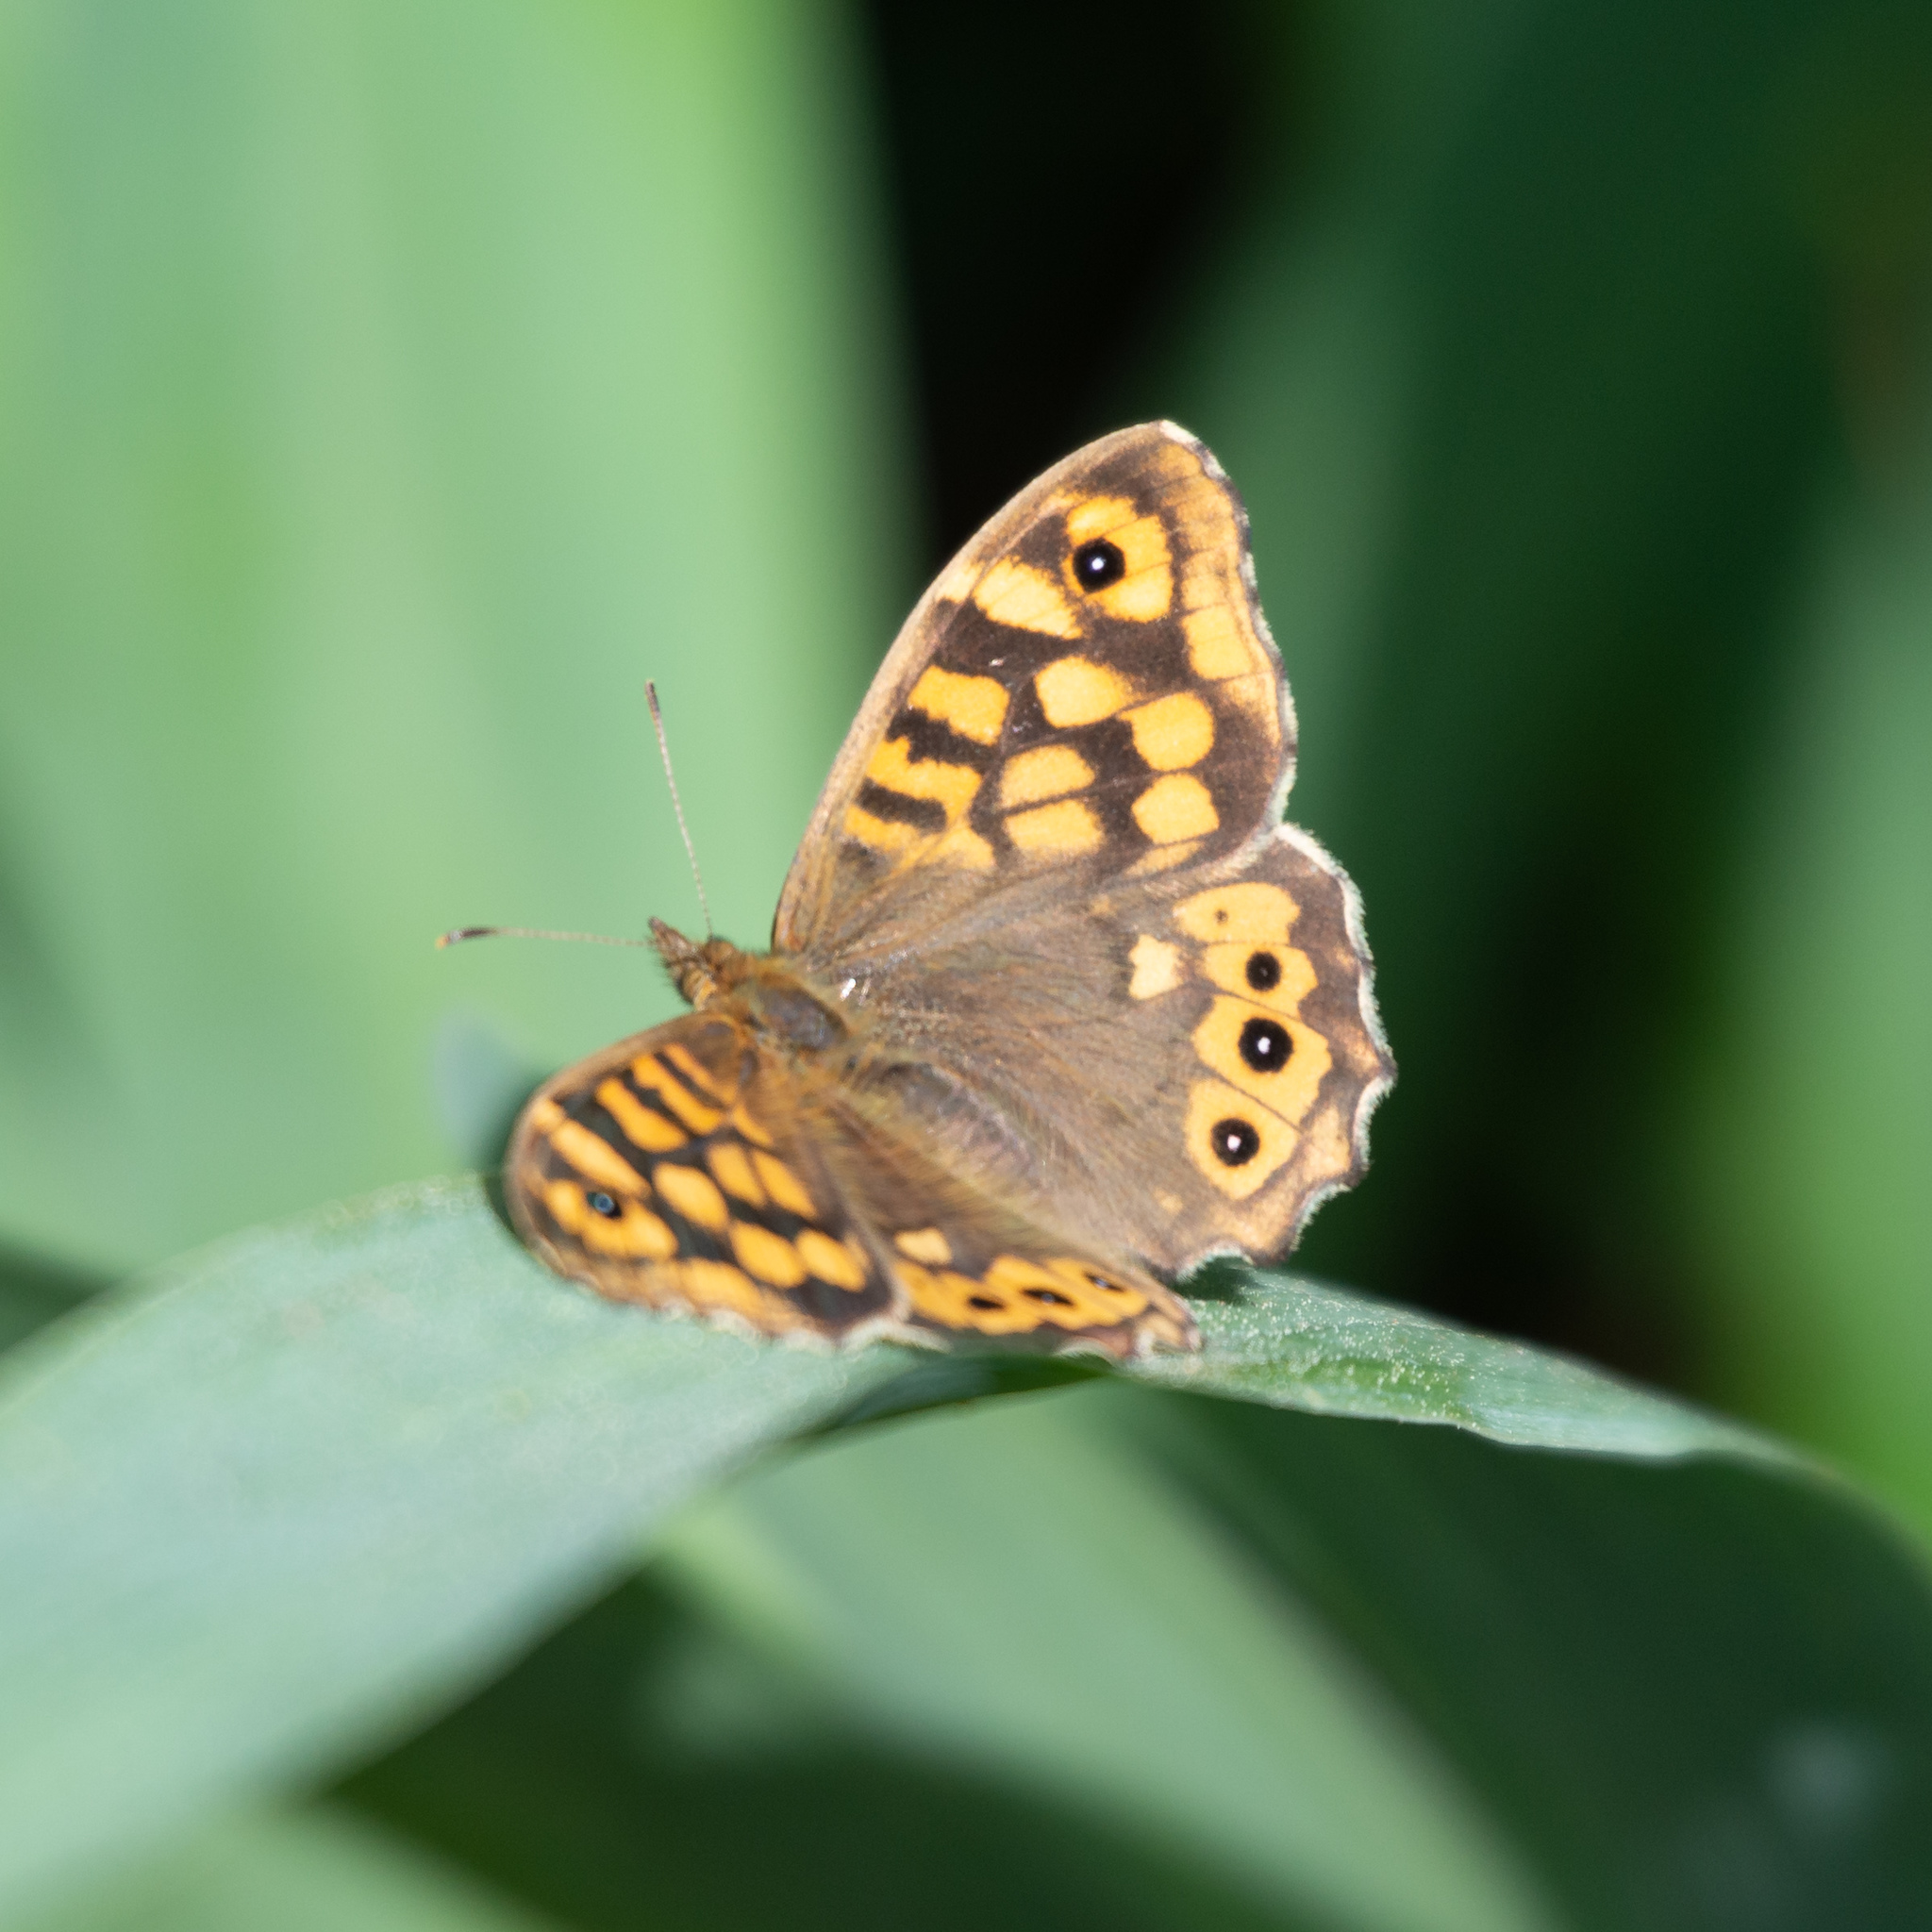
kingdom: Animalia
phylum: Arthropoda
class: Insecta
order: Lepidoptera
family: Nymphalidae
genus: Pararge
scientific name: Pararge aegeria
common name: Speckled wood
